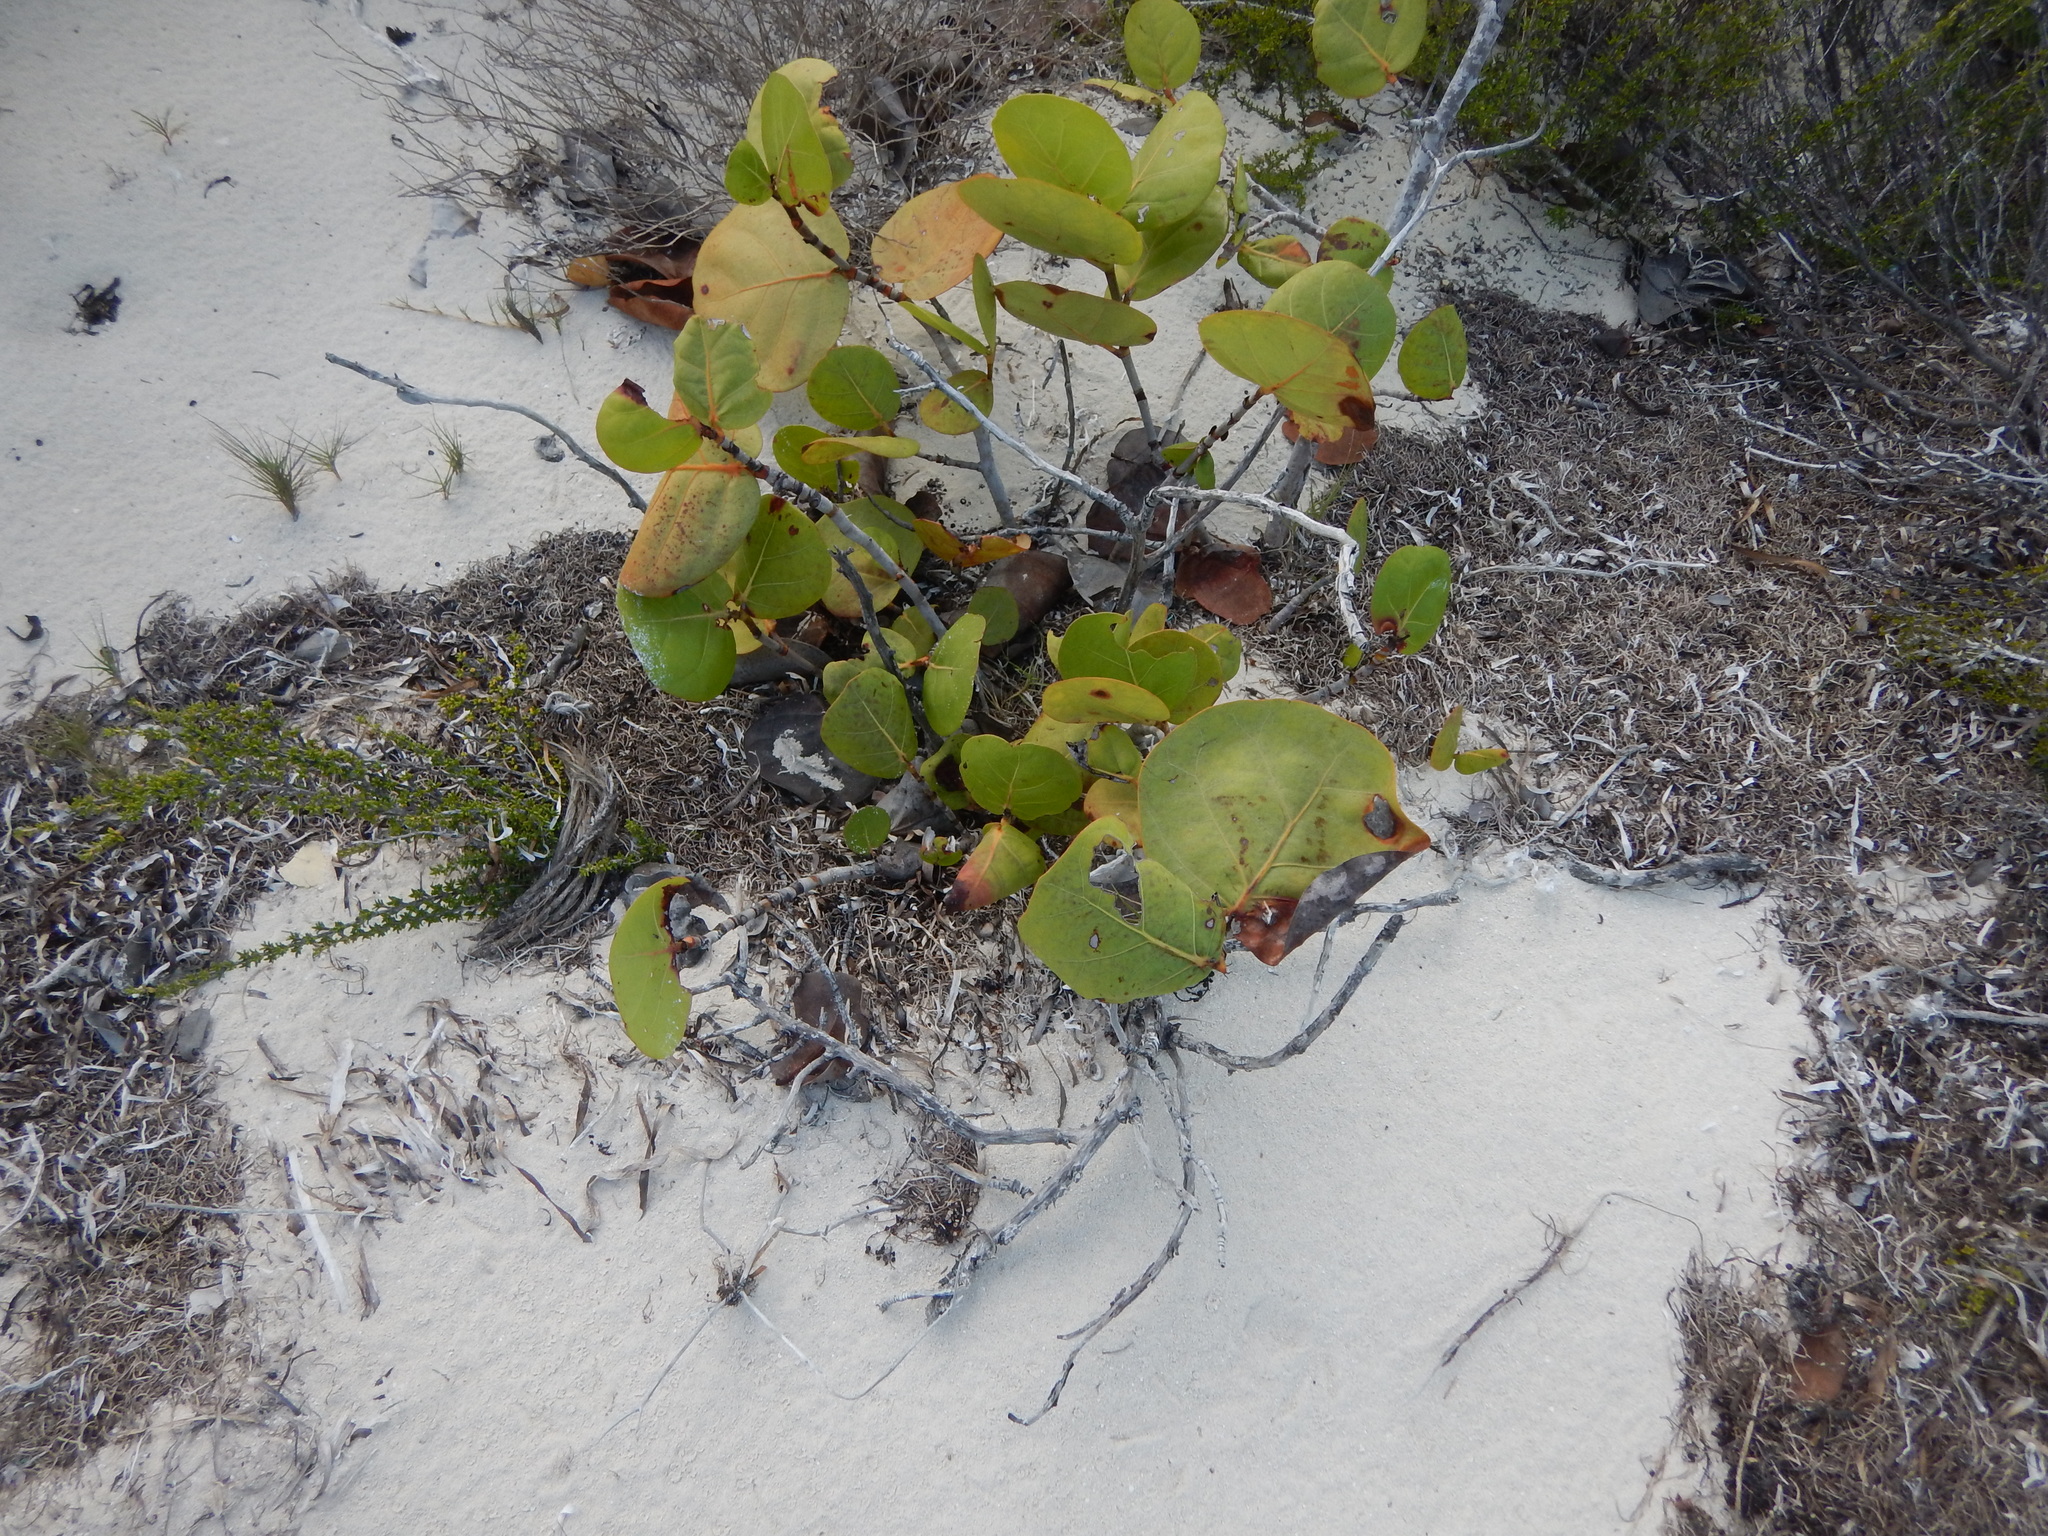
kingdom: Plantae
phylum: Tracheophyta
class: Magnoliopsida
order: Caryophyllales
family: Polygonaceae
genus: Coccoloba
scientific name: Coccoloba uvifera
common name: Seagrape
